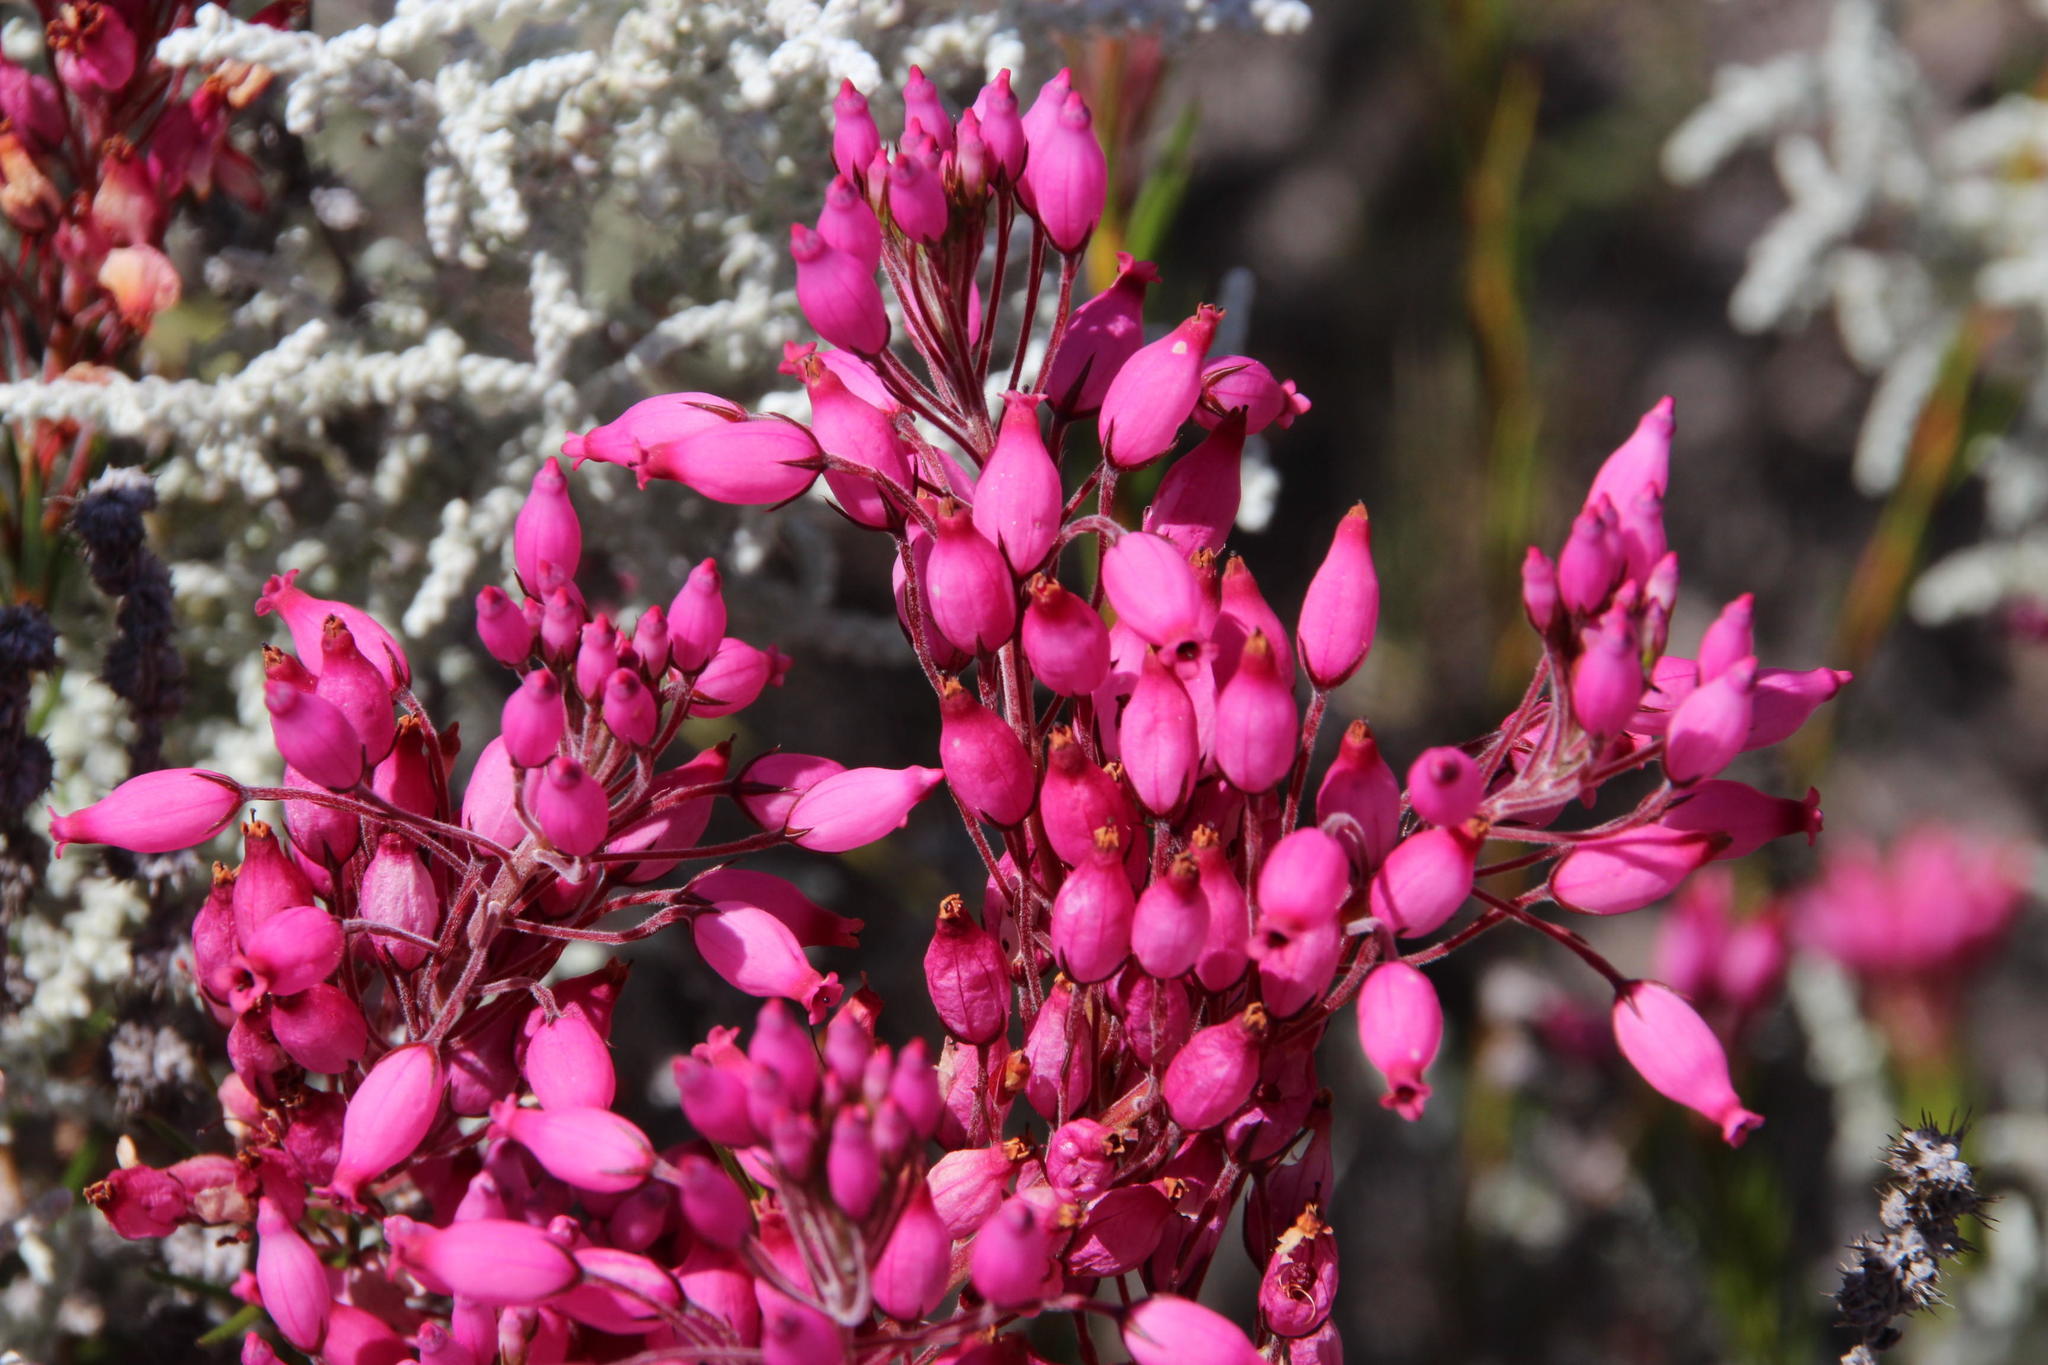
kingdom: Plantae
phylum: Tracheophyta
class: Magnoliopsida
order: Ericales
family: Ericaceae
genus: Erica
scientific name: Erica inflata
